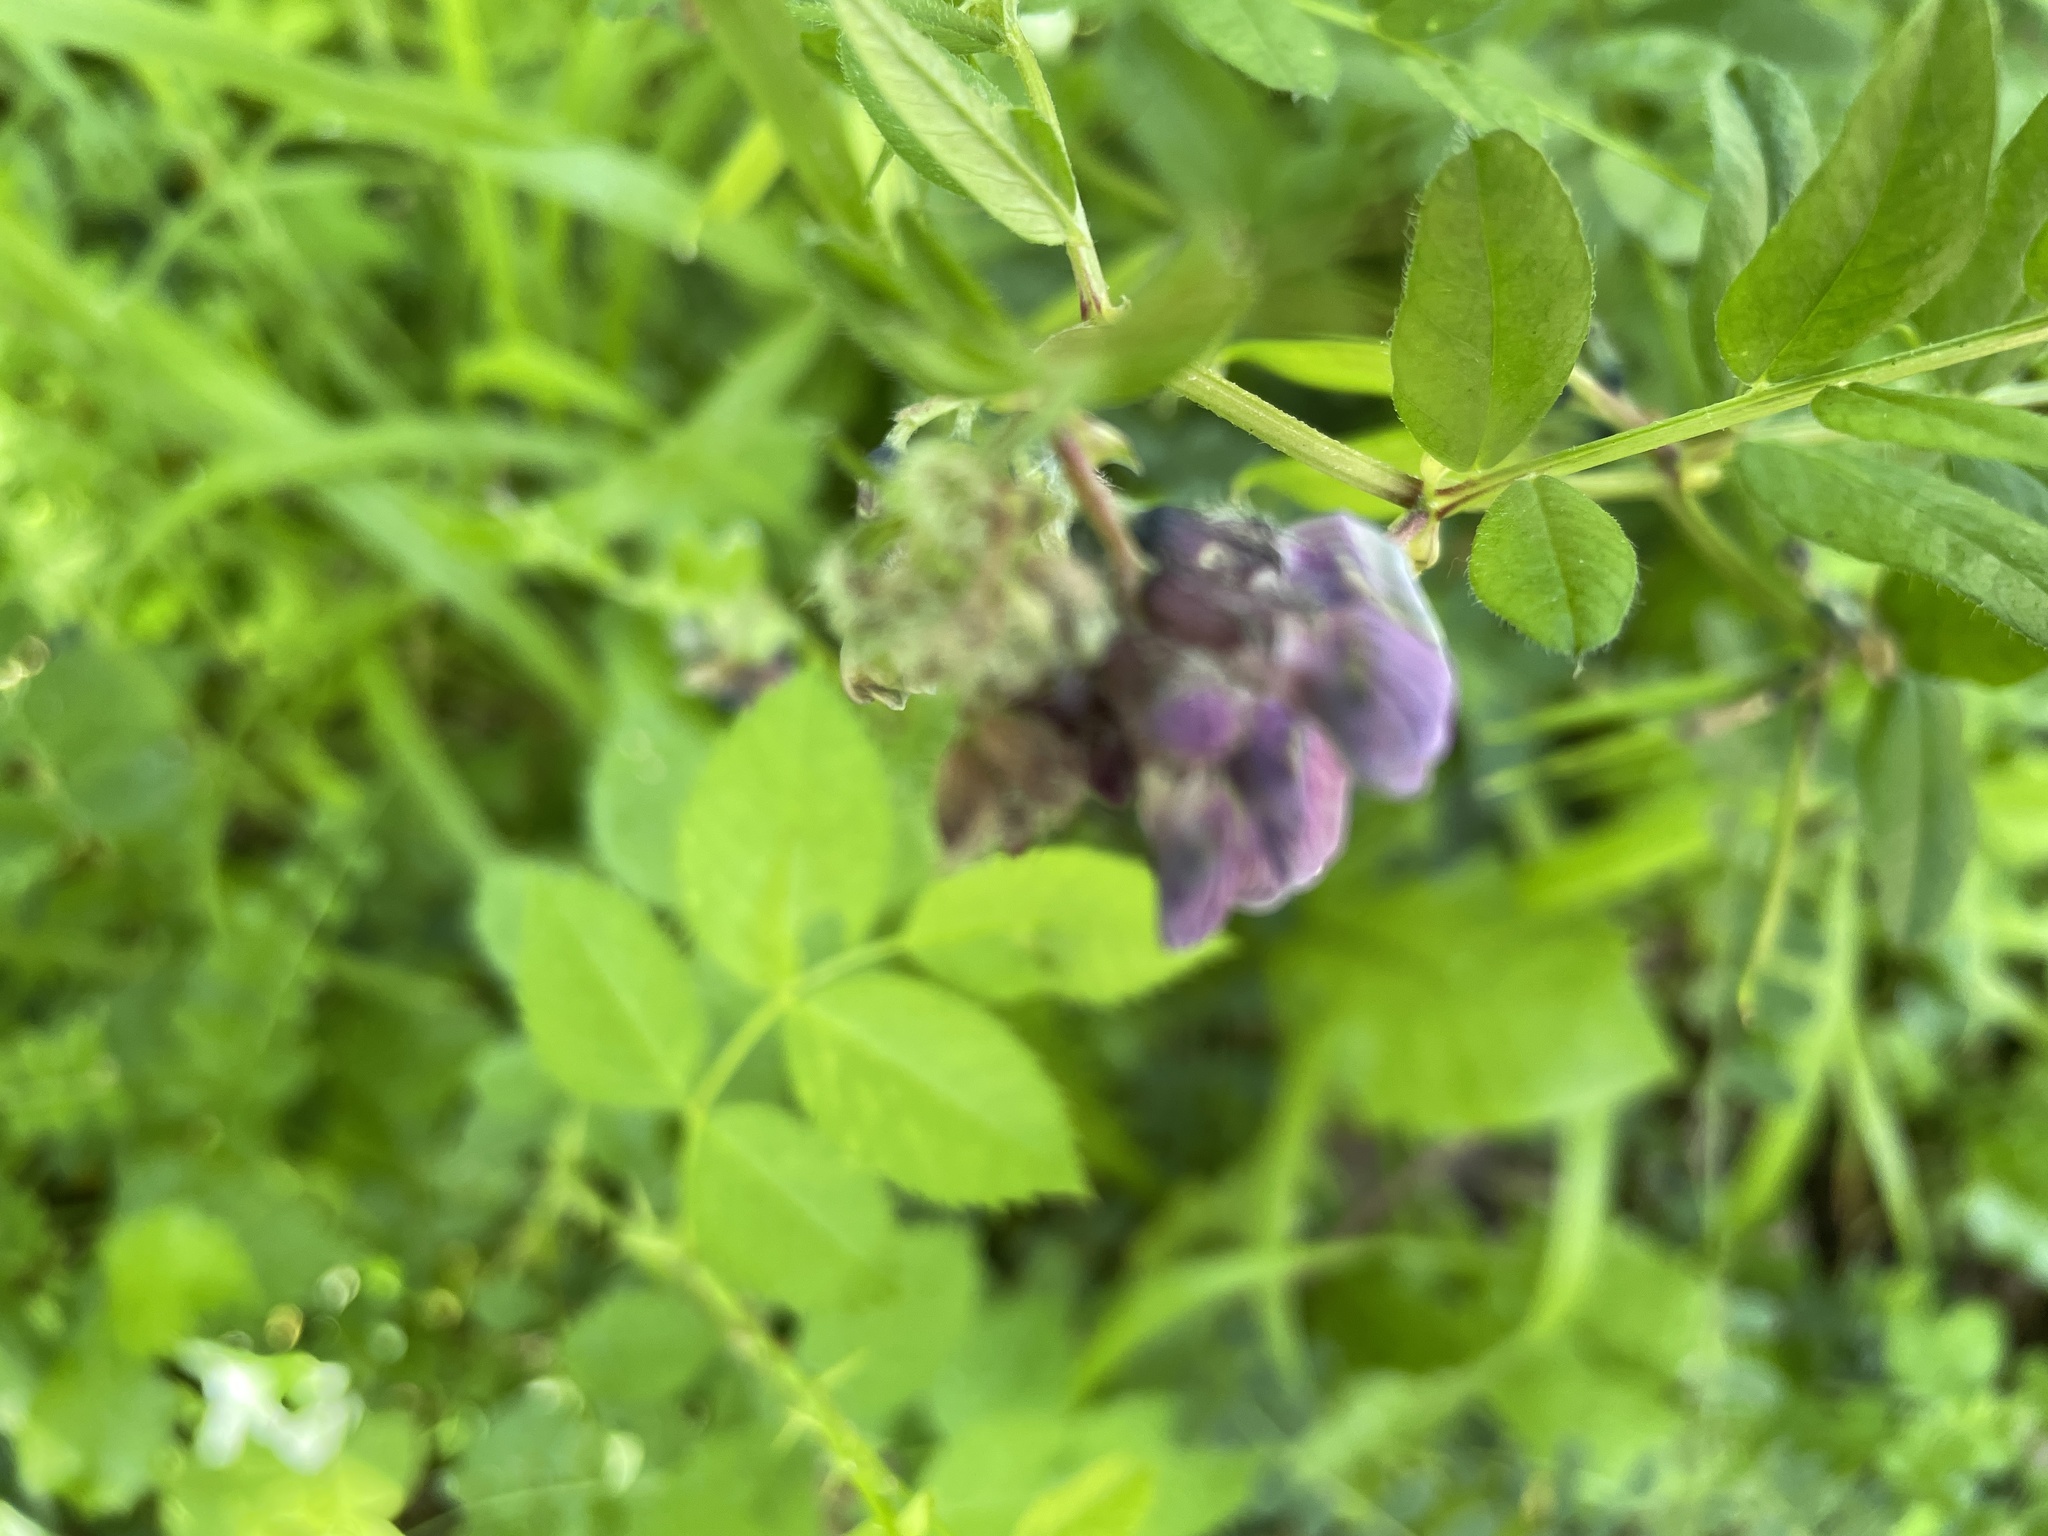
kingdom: Plantae
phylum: Tracheophyta
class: Magnoliopsida
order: Fabales
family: Fabaceae
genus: Vicia
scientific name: Vicia sepium
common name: Bush vetch
